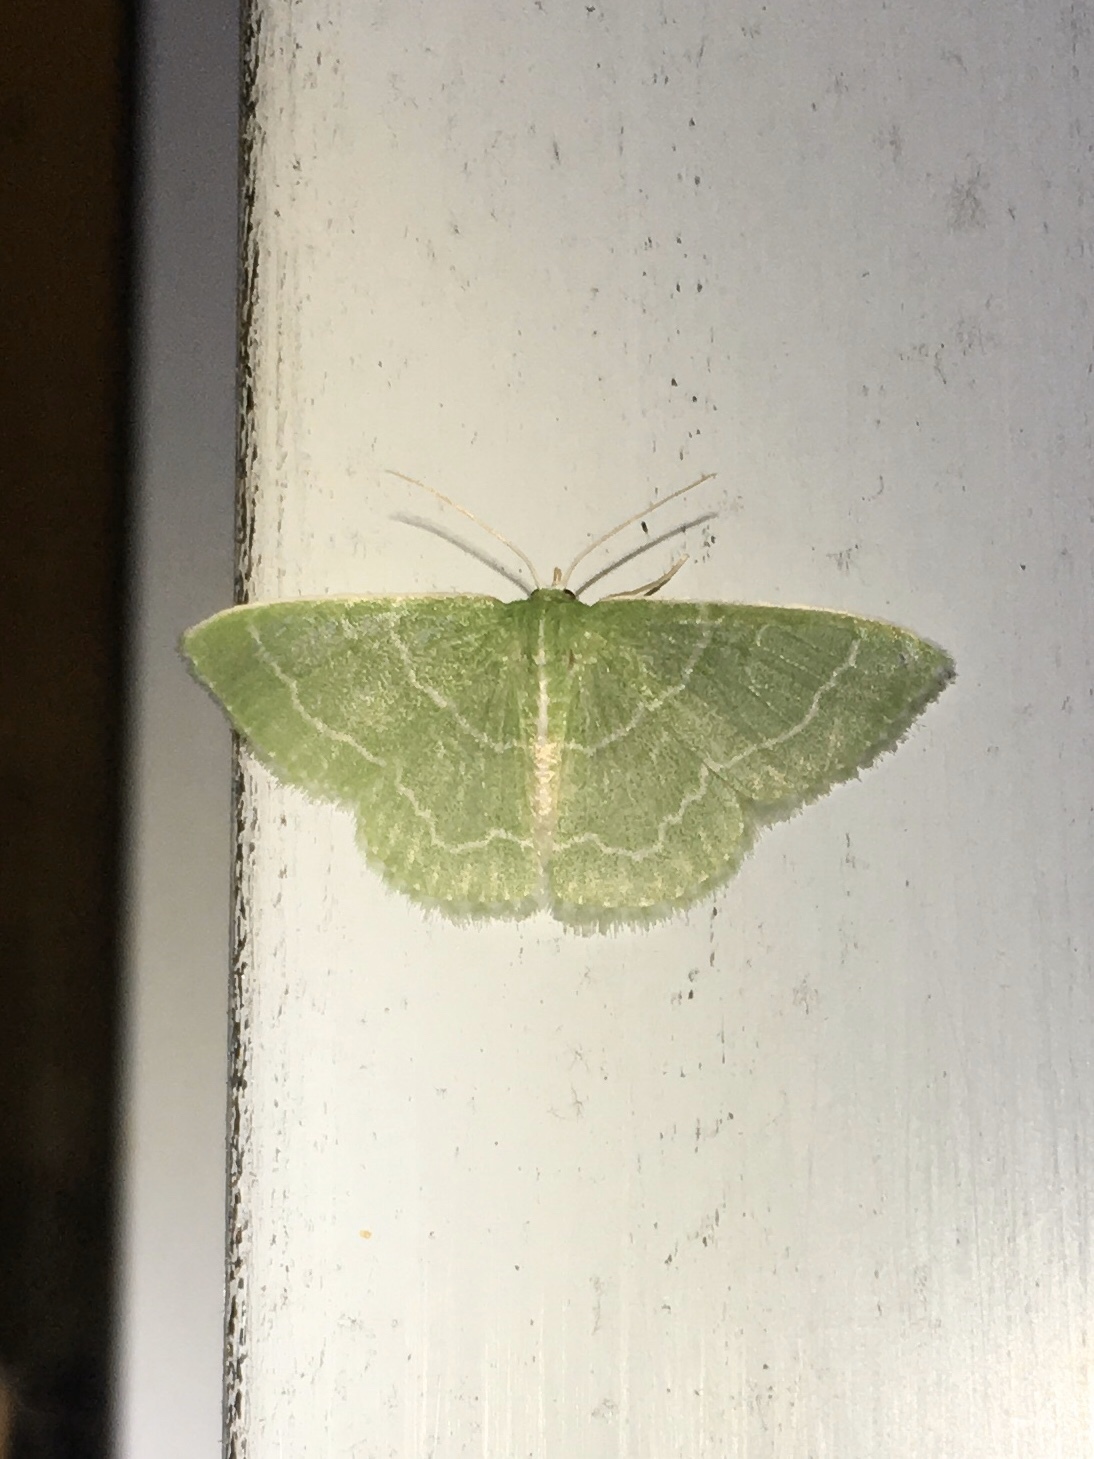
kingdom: Animalia
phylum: Arthropoda
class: Insecta
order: Lepidoptera
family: Geometridae
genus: Synchlora
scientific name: Synchlora aerata
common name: Wavy-lined emerald
